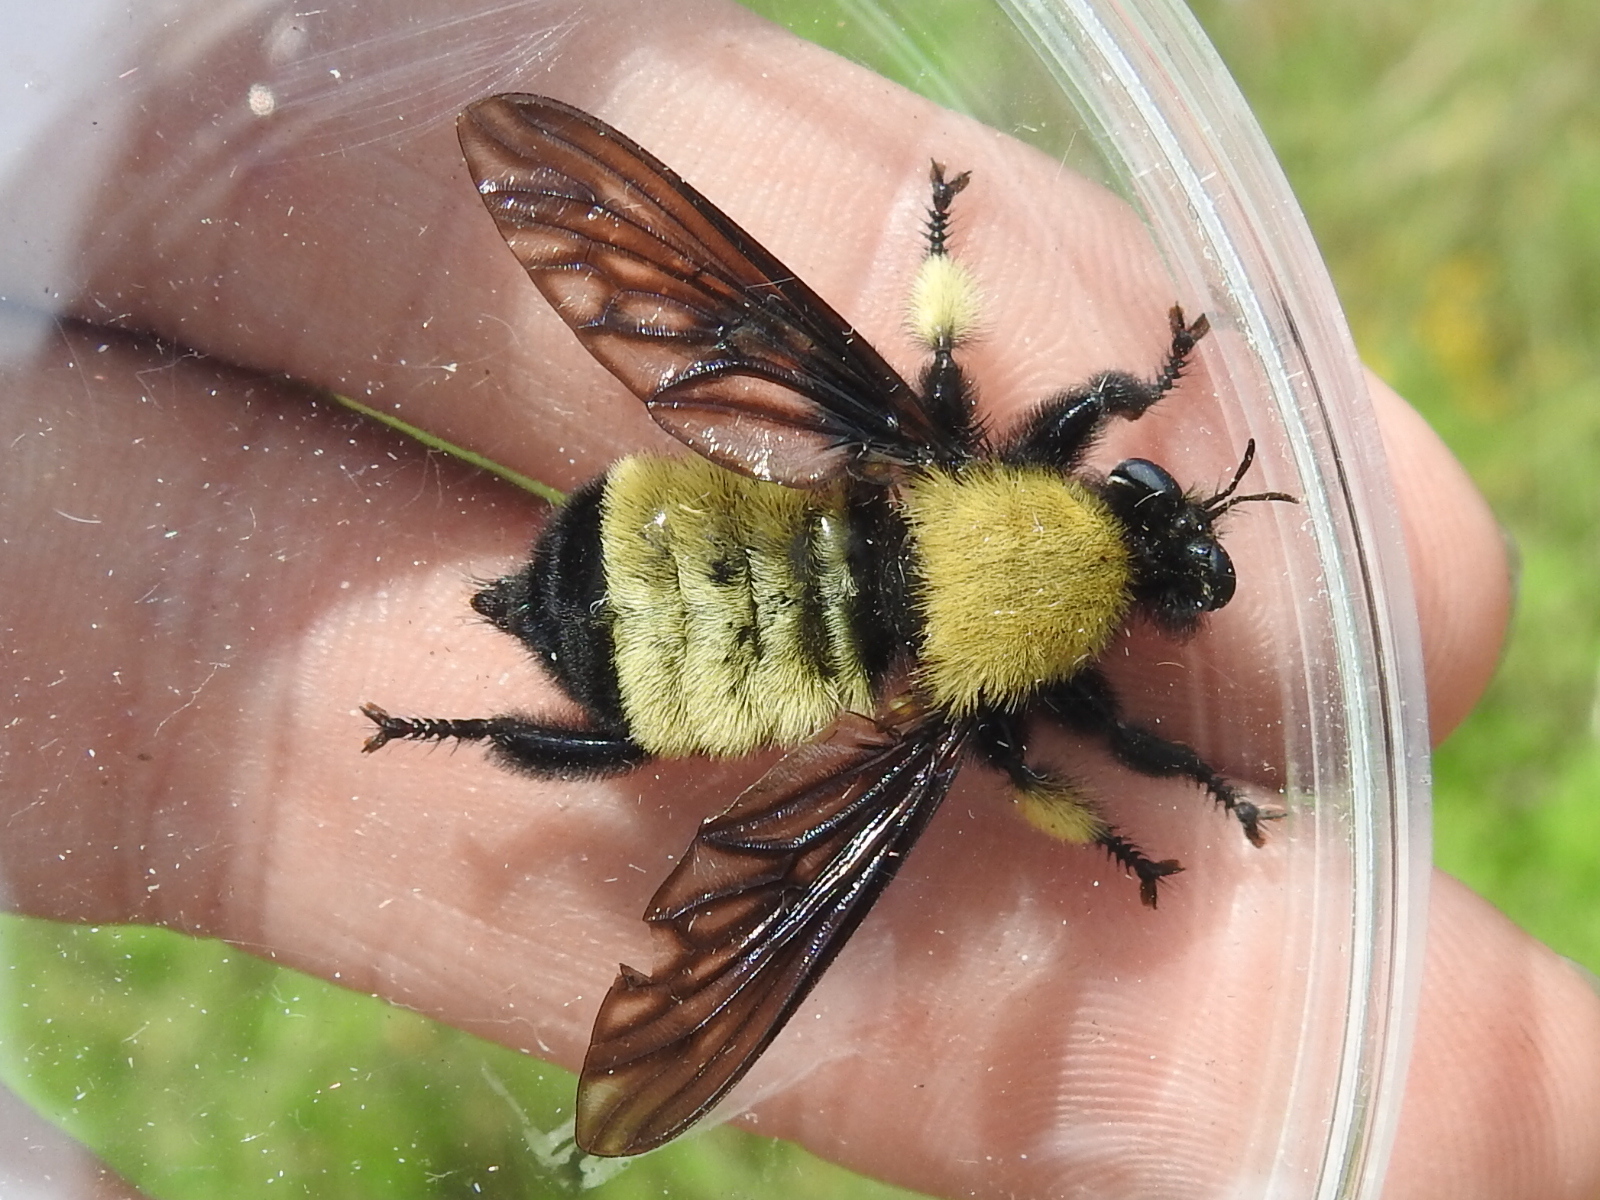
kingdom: Animalia
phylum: Arthropoda
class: Insecta
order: Diptera
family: Asilidae
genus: Laphria
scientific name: Laphria macquarti
